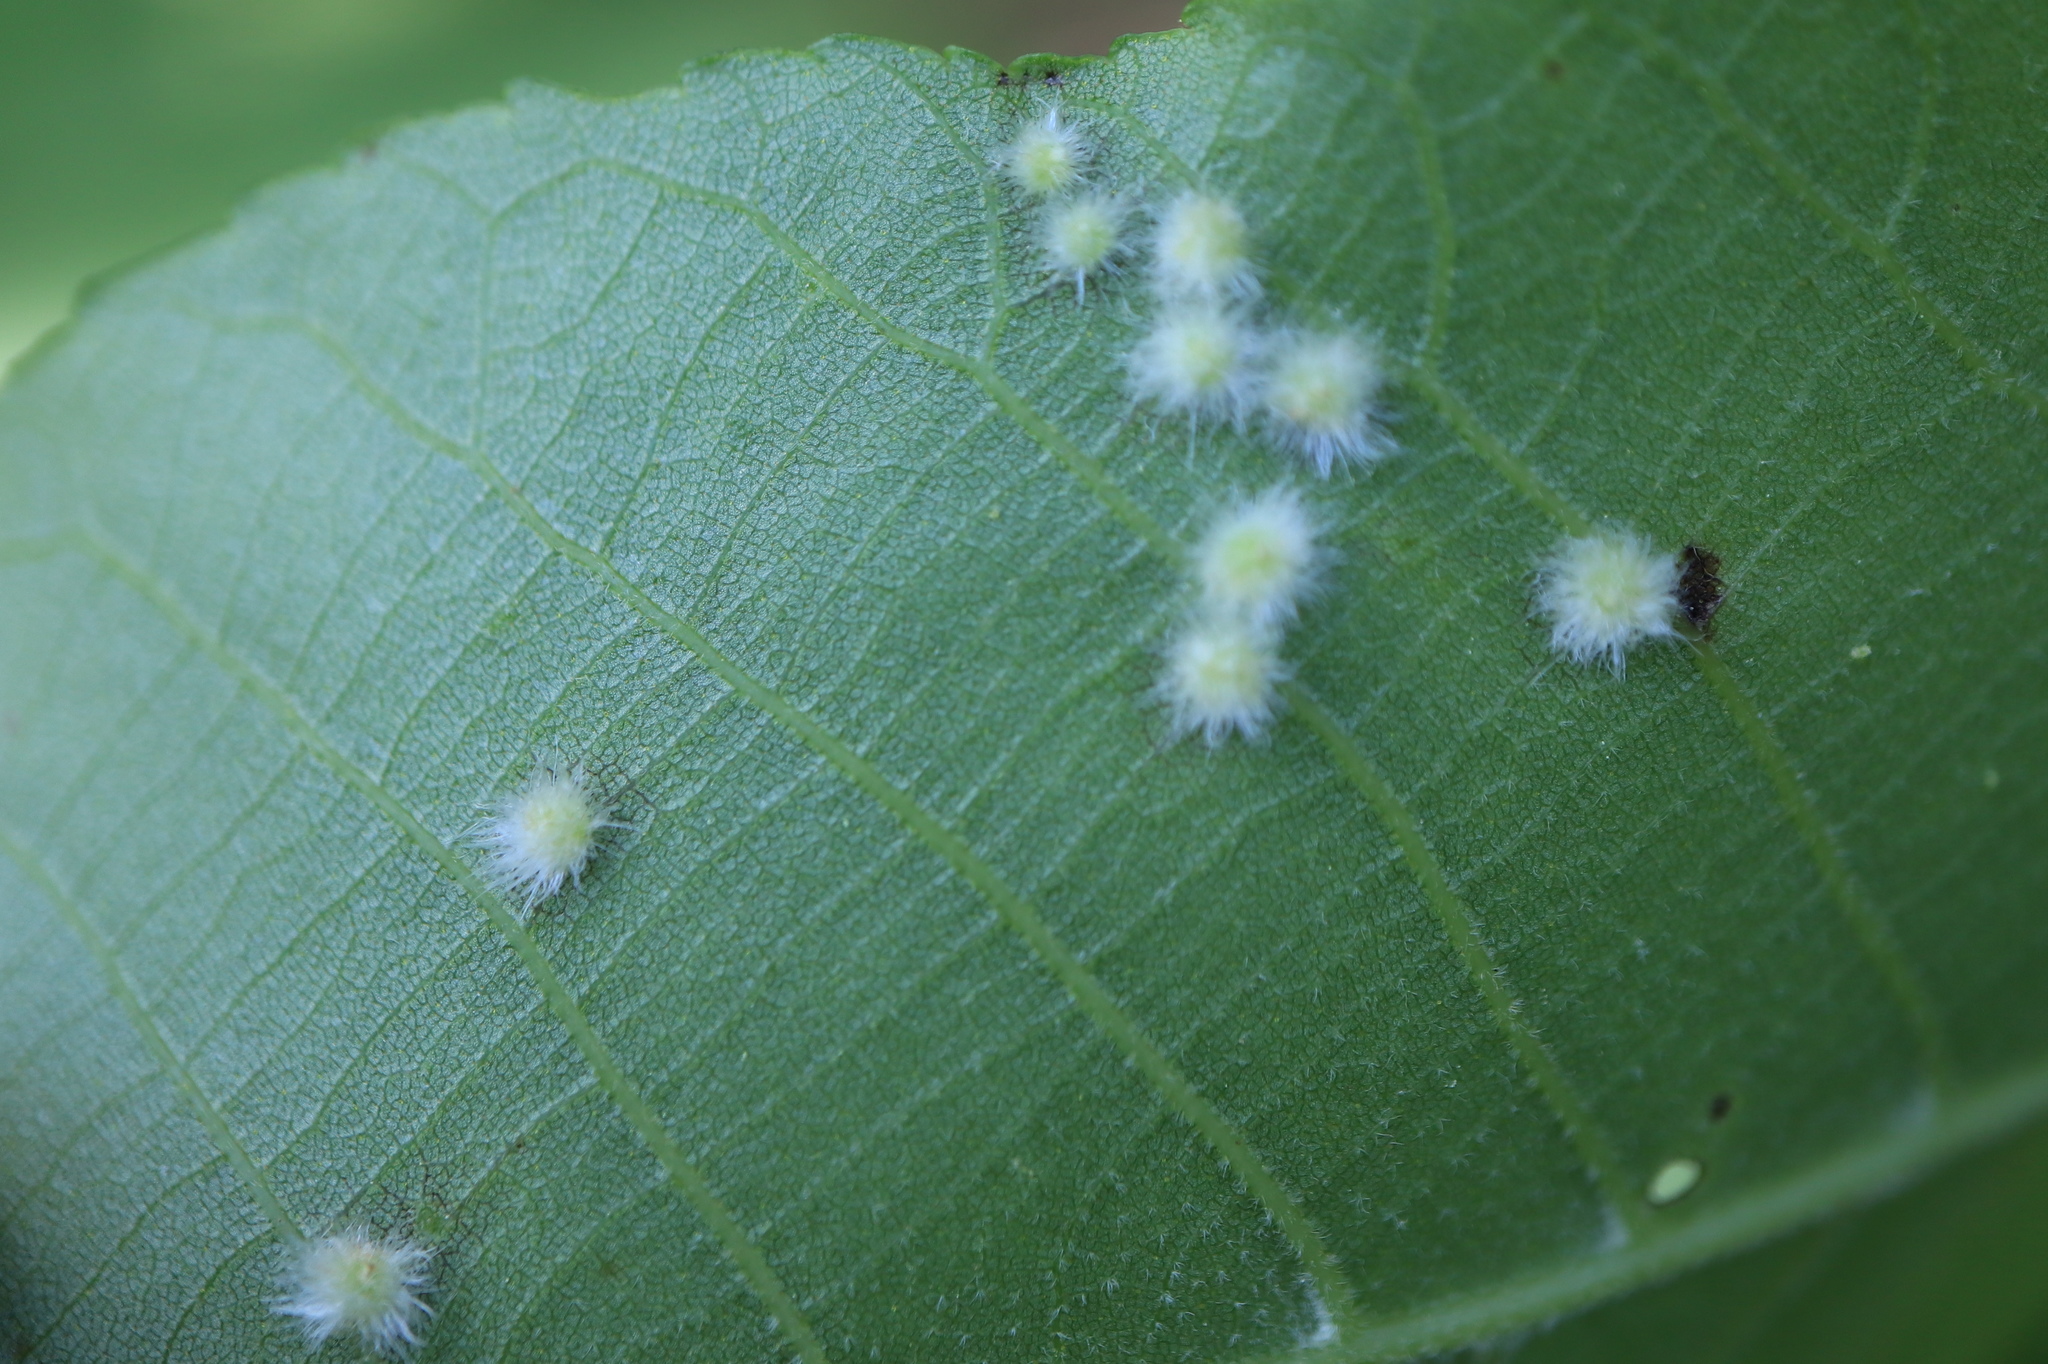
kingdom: Animalia
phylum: Arthropoda
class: Insecta
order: Diptera
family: Cecidomyiidae
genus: Caryomyia
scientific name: Caryomyia albipilosa
